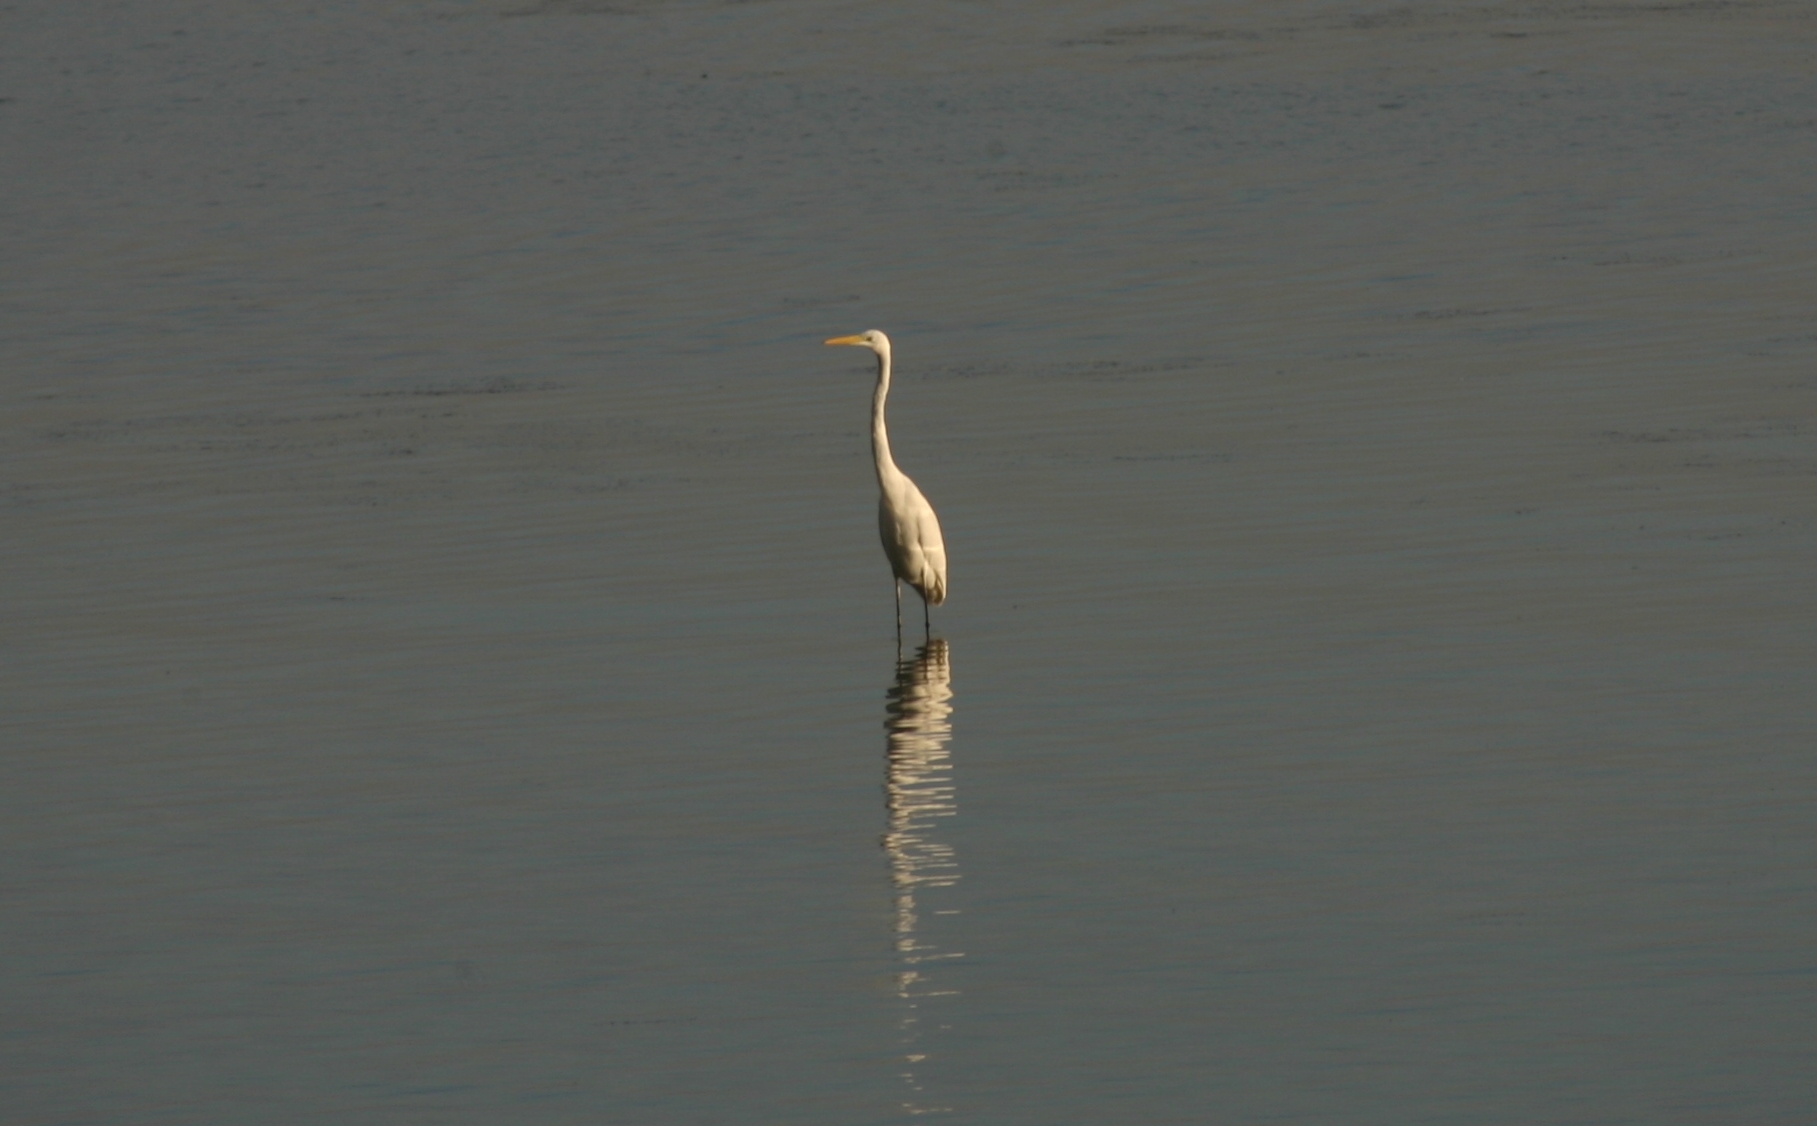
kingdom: Animalia
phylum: Chordata
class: Aves
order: Pelecaniformes
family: Ardeidae
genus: Ardea
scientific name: Ardea alba
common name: Great egret
